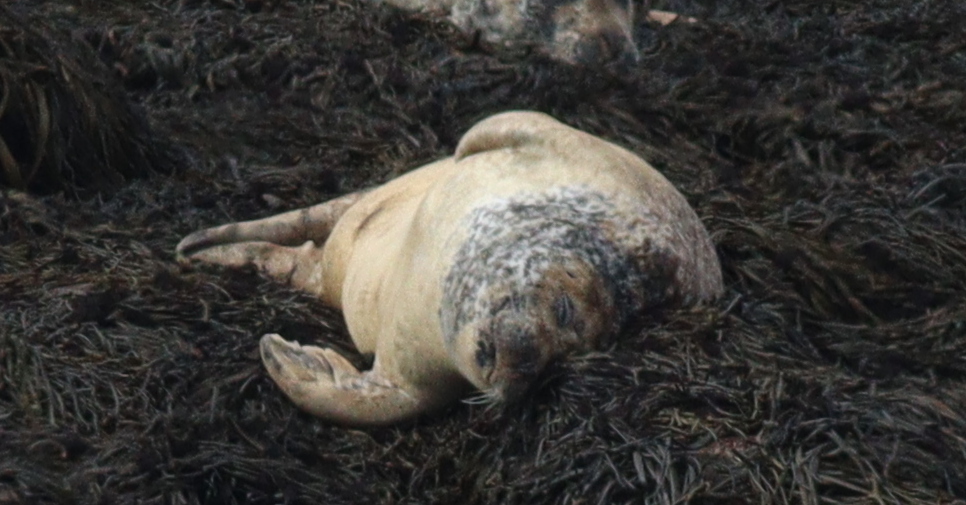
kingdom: Animalia
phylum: Chordata
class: Mammalia
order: Carnivora
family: Phocidae
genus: Phoca
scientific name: Phoca vitulina
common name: Harbor seal
